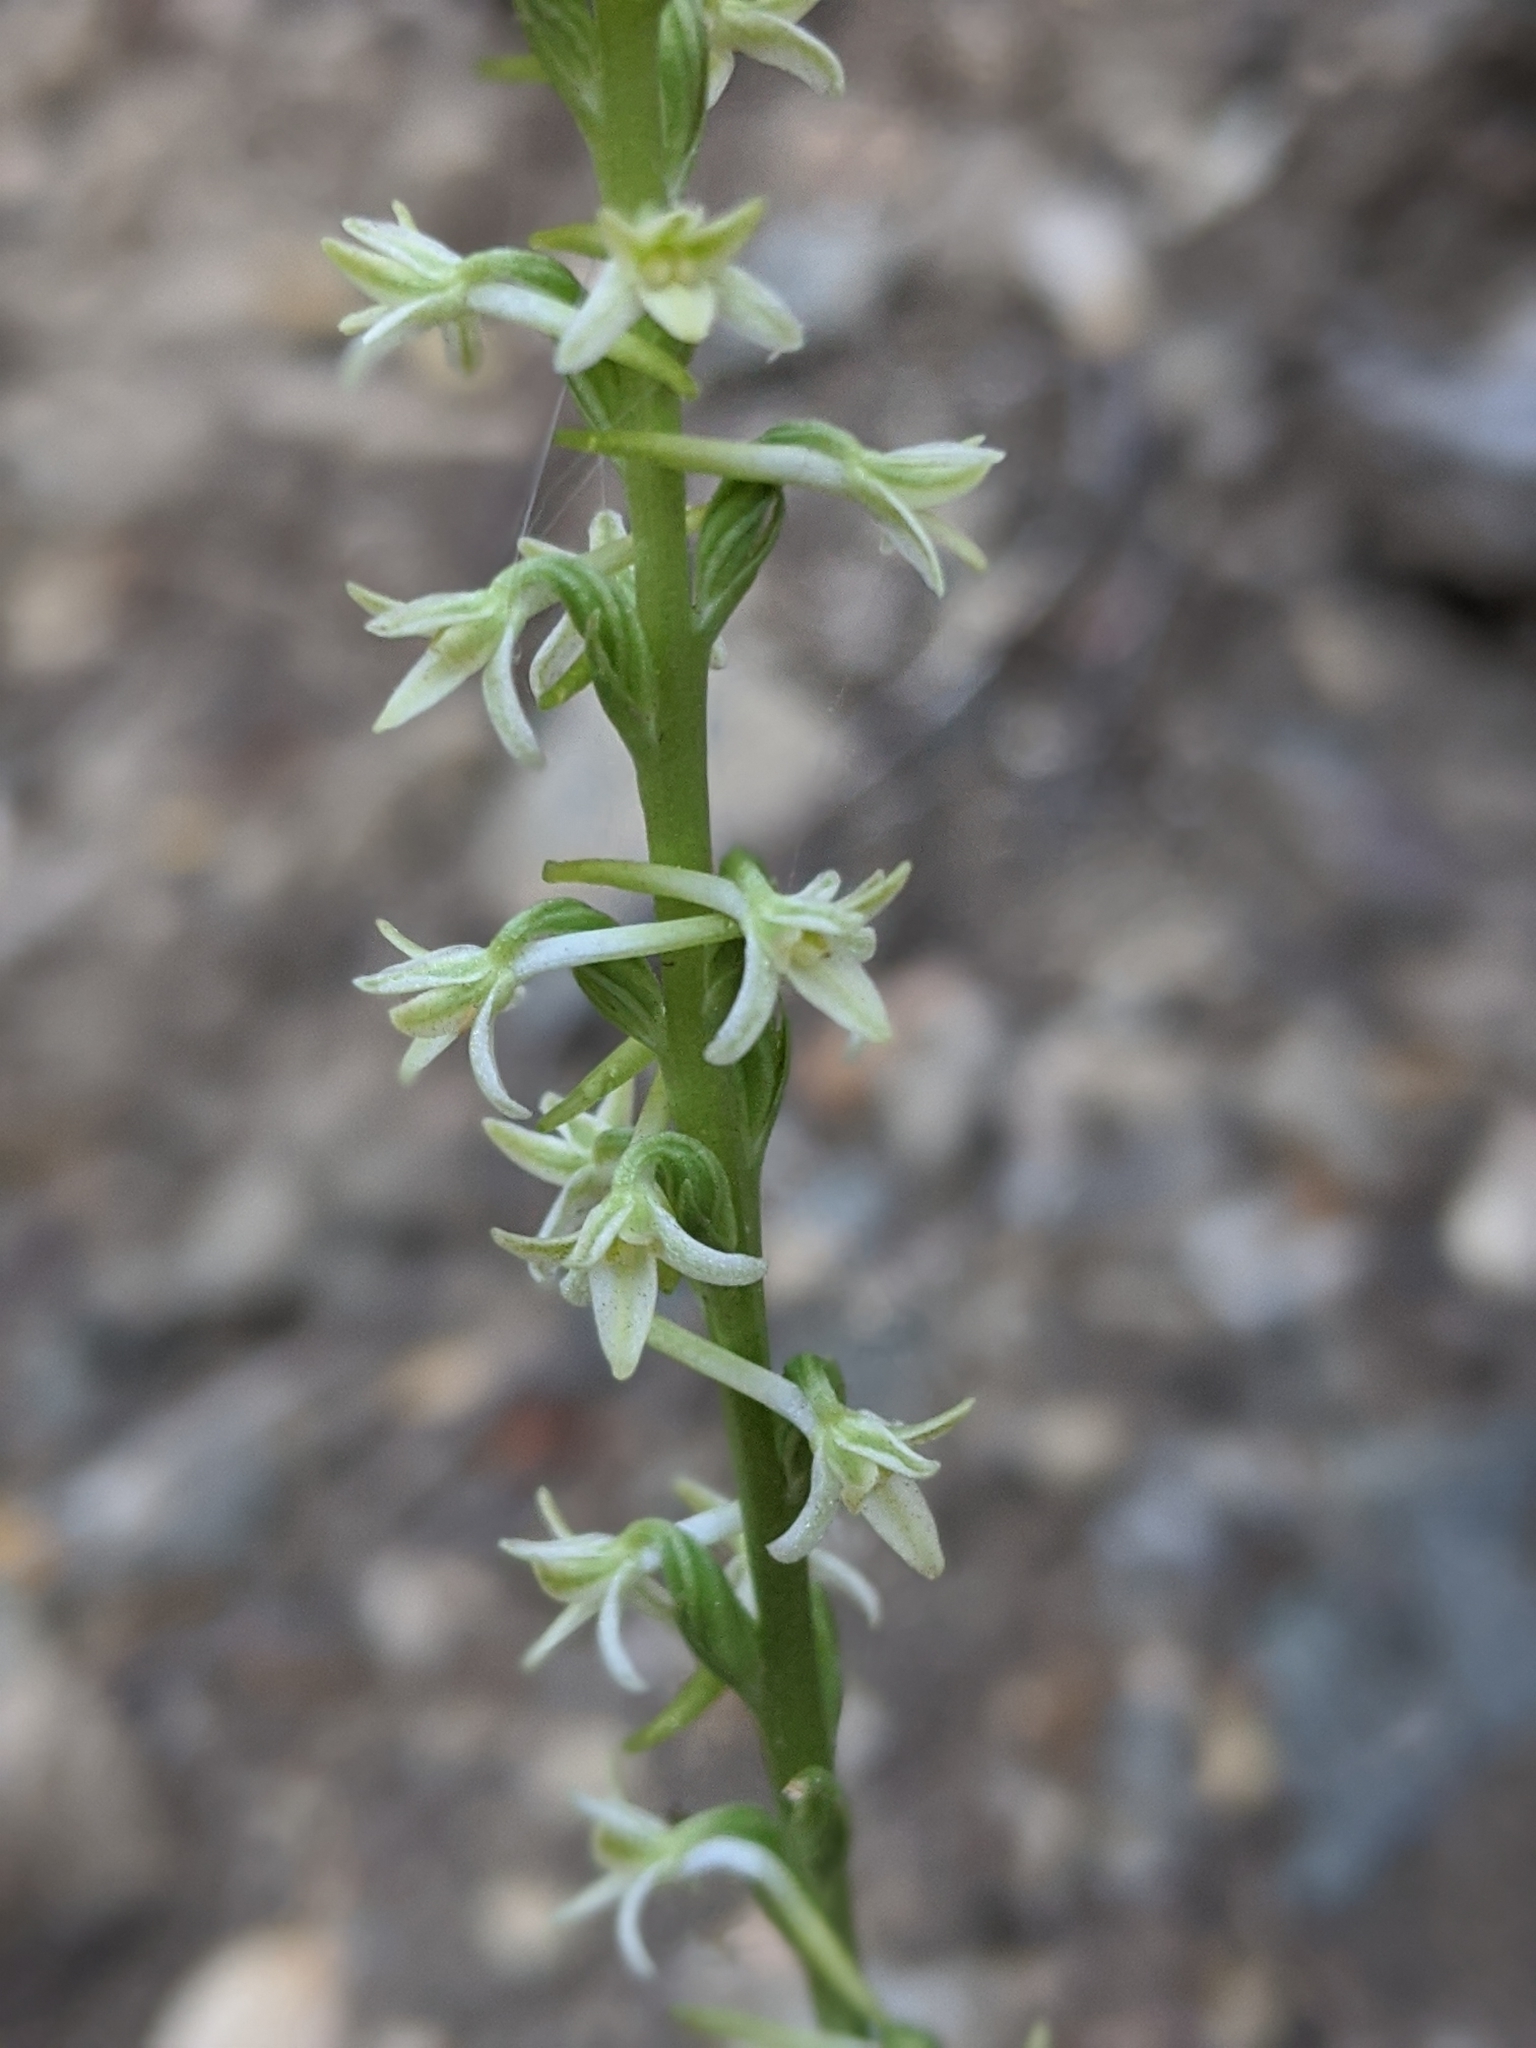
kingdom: Plantae
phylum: Tracheophyta
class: Liliopsida
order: Asparagales
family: Orchidaceae
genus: Platanthera
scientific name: Platanthera transversa
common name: Royal rein orchid
